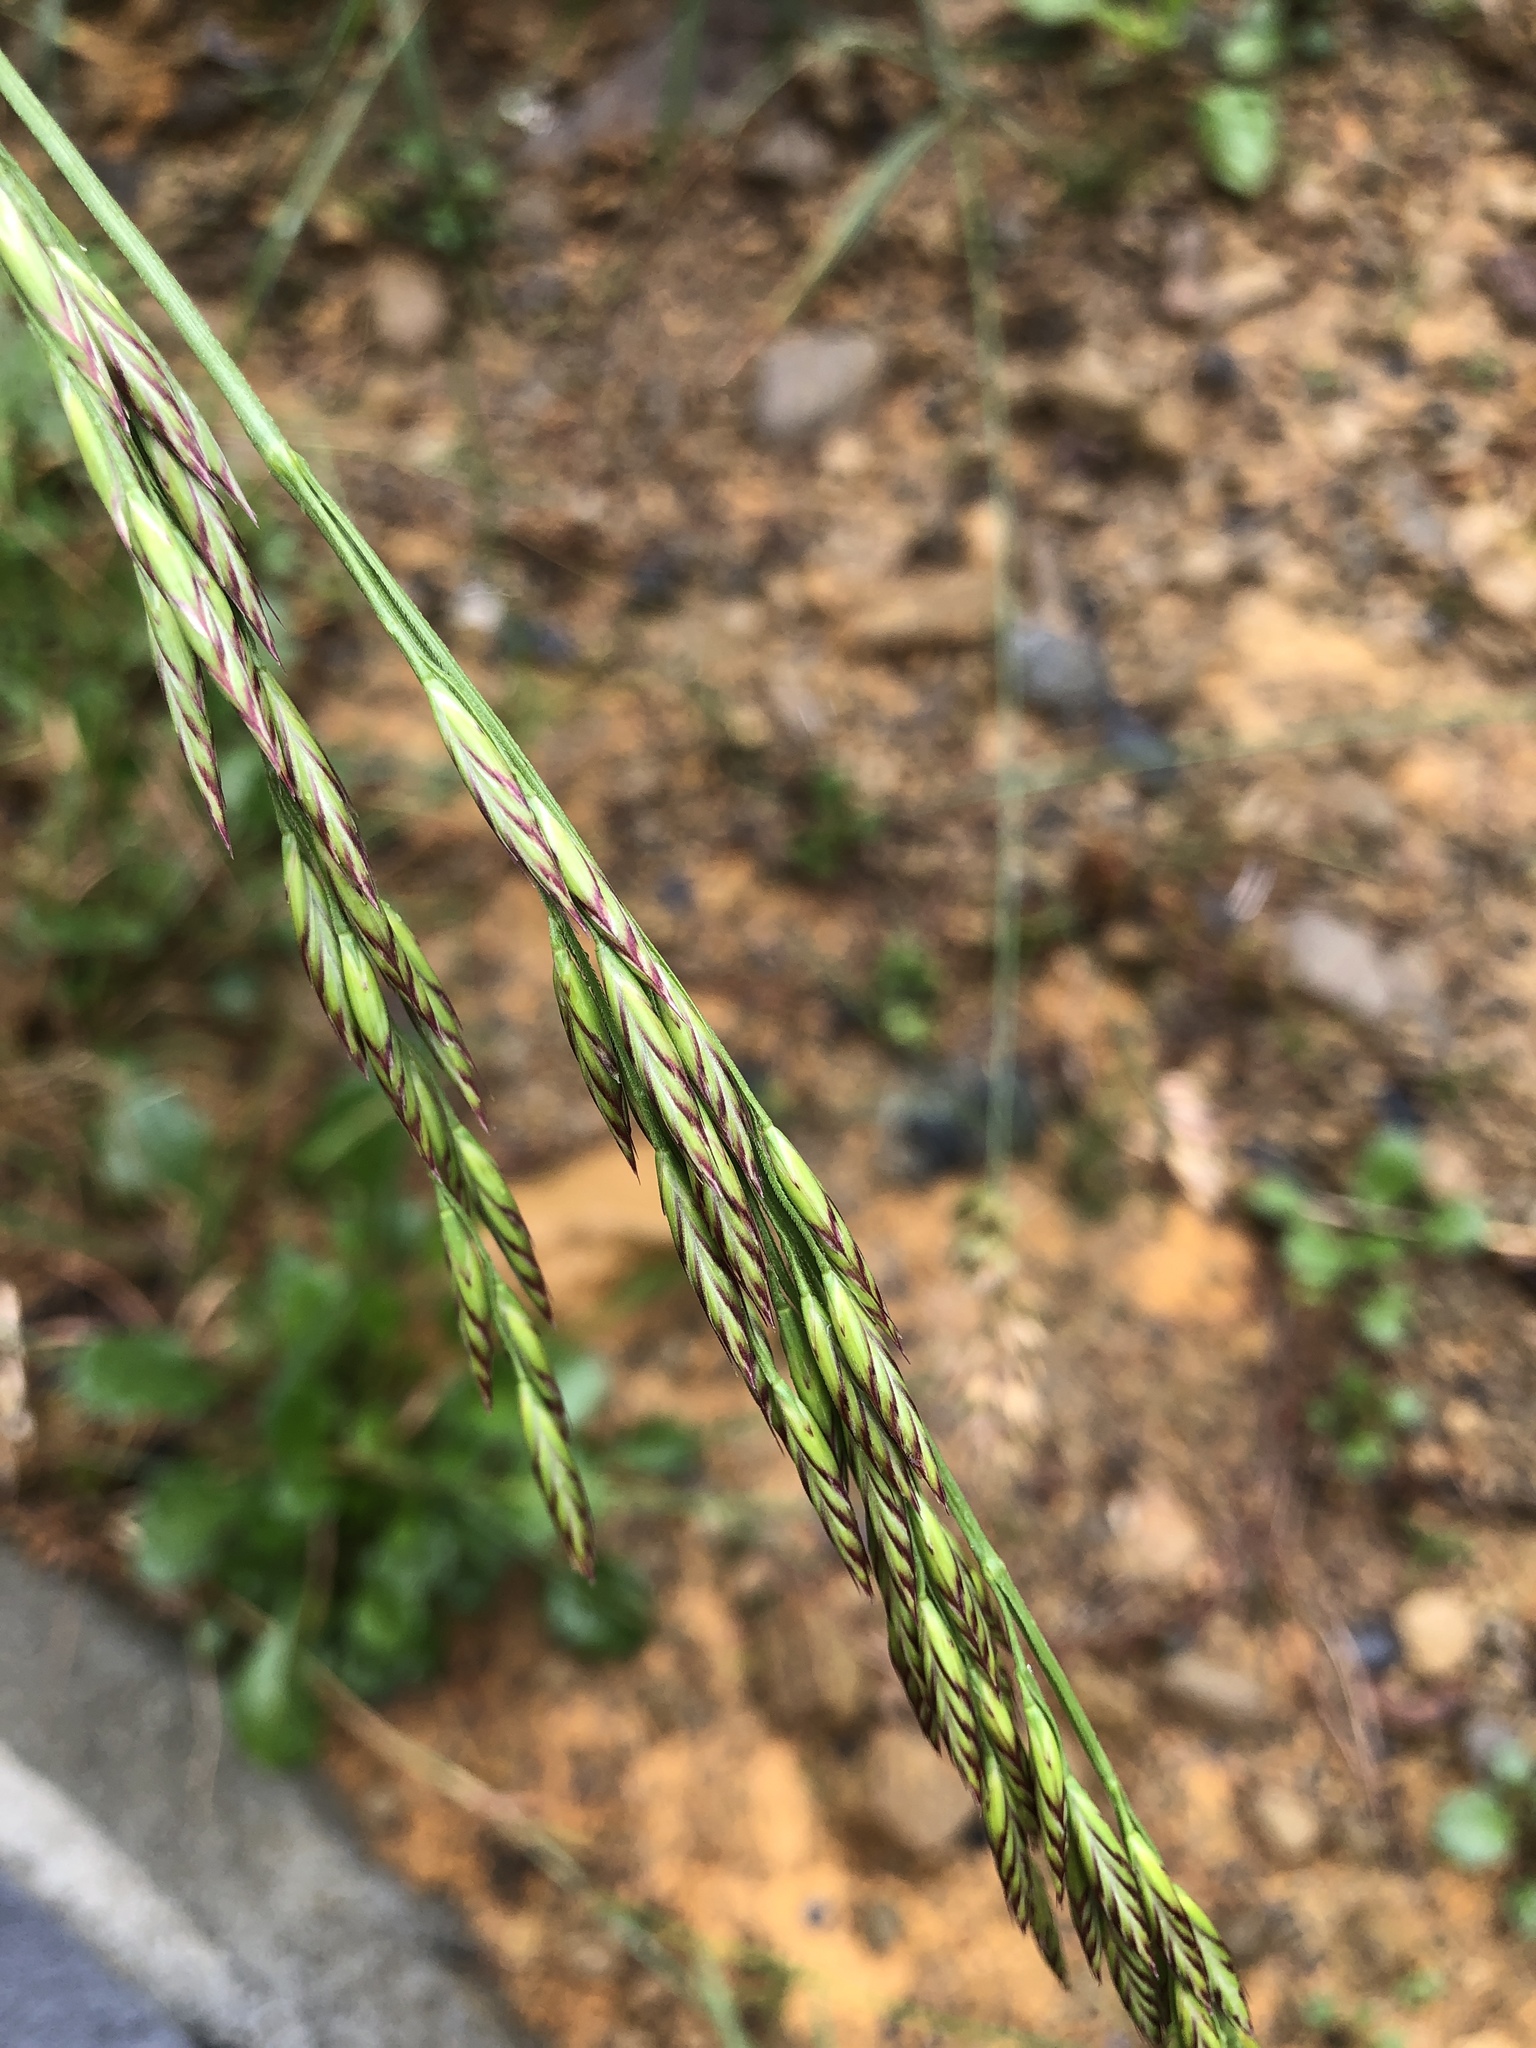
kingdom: Plantae
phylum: Tracheophyta
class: Liliopsida
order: Poales
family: Poaceae
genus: Lolium
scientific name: Lolium arundinaceum
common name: Reed fescue
